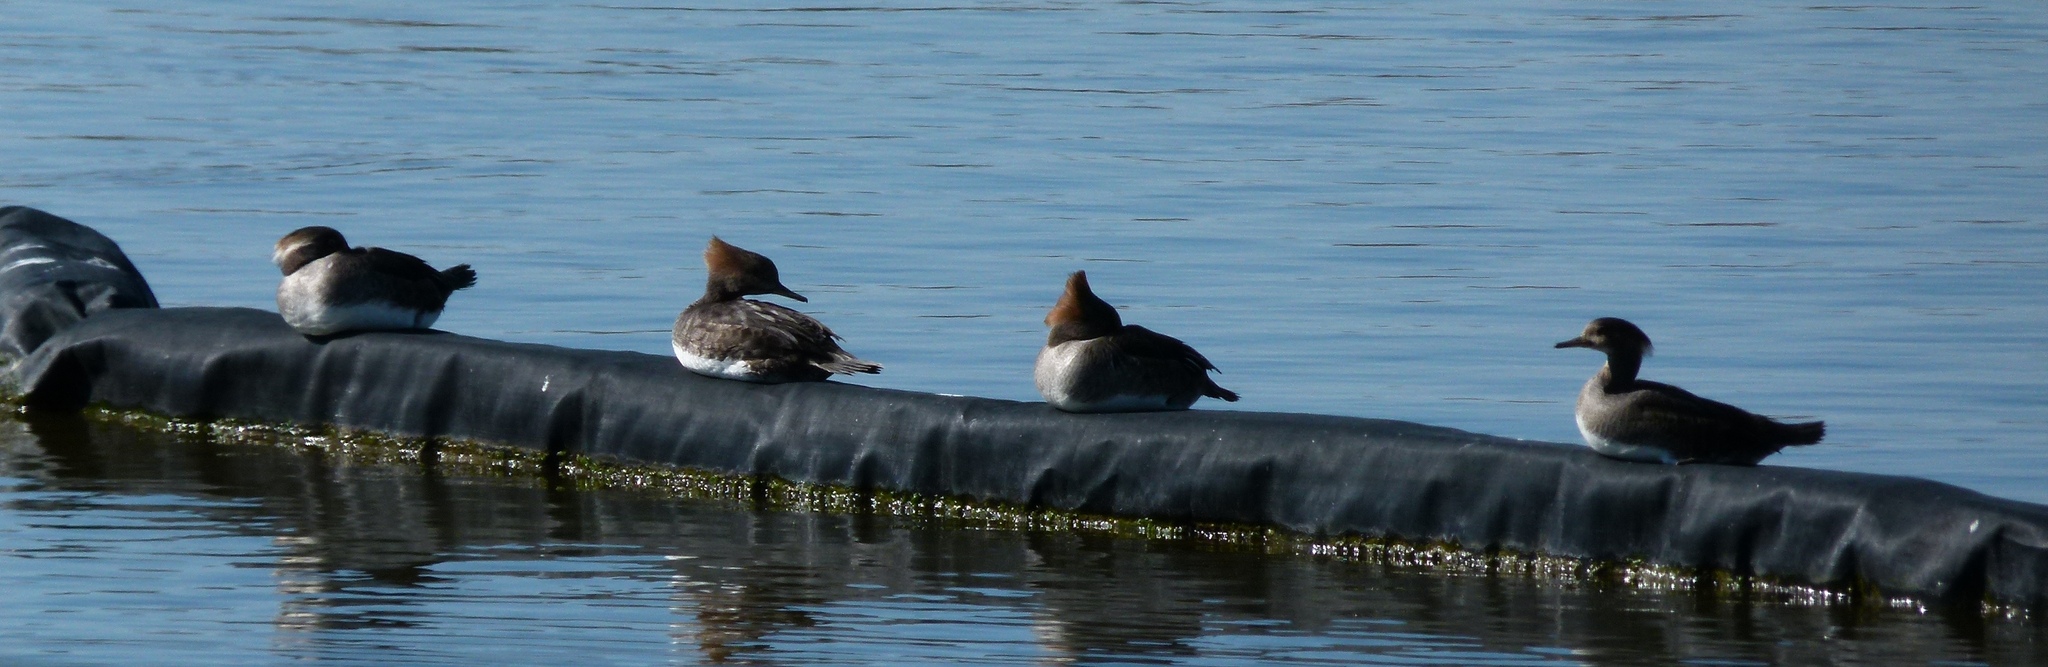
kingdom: Animalia
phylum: Chordata
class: Aves
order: Anseriformes
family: Anatidae
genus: Lophodytes
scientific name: Lophodytes cucullatus
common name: Hooded merganser
